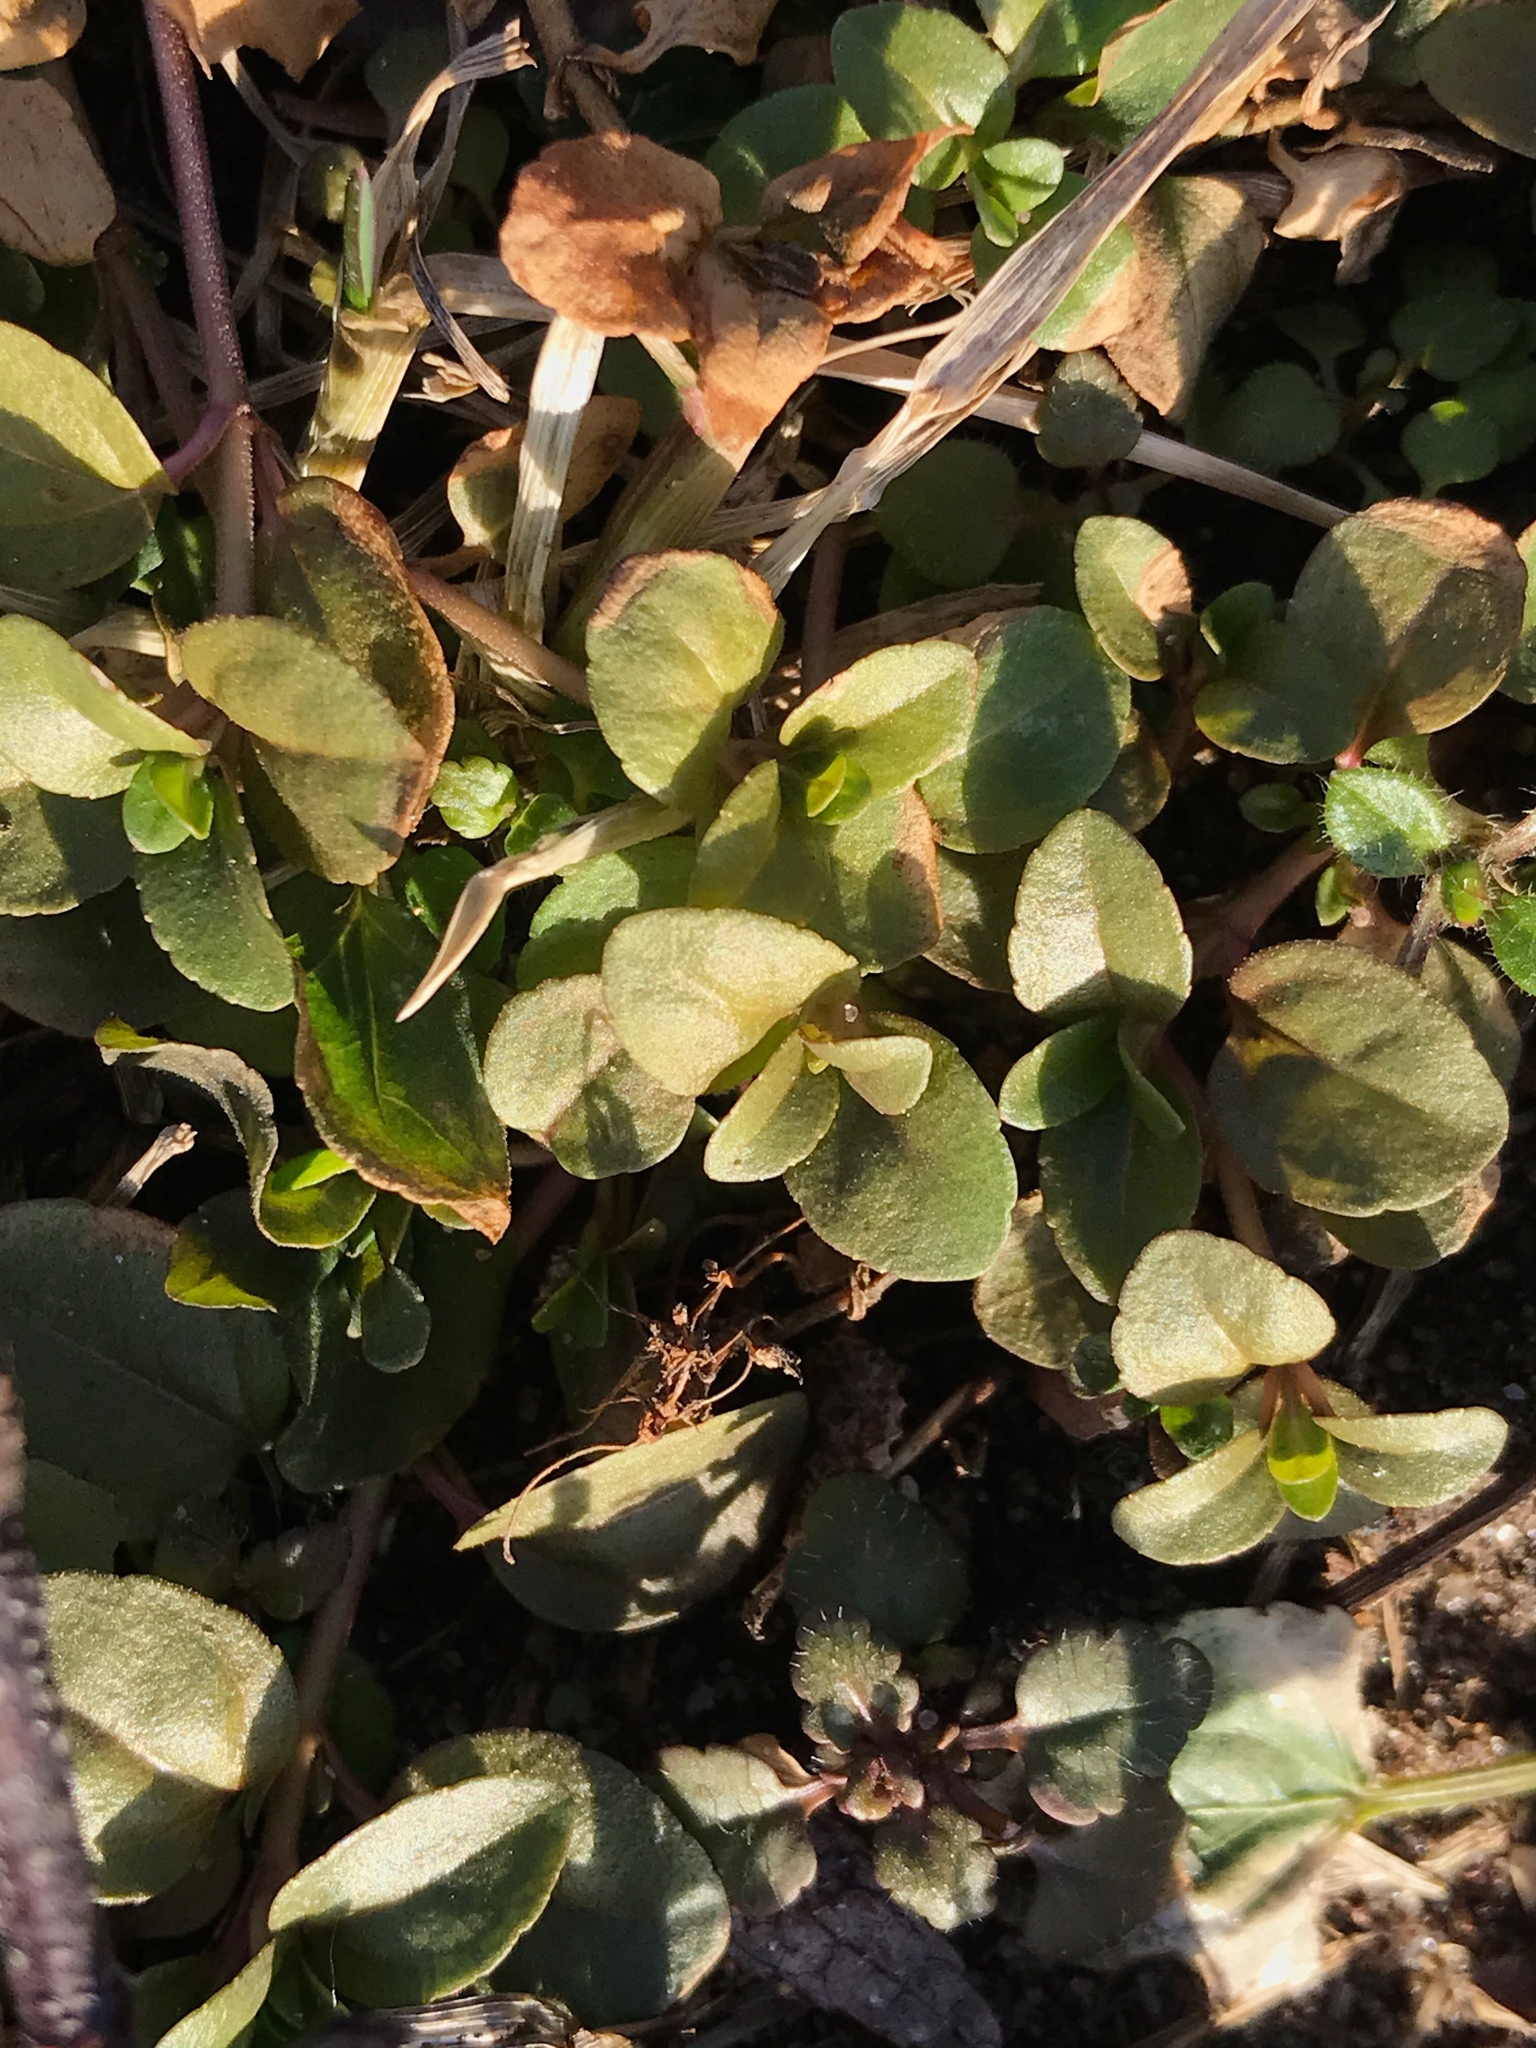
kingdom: Plantae
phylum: Tracheophyta
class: Magnoliopsida
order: Lamiales
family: Plantaginaceae
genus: Veronica
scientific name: Veronica serpyllifolia
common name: Thyme-leaved speedwell
